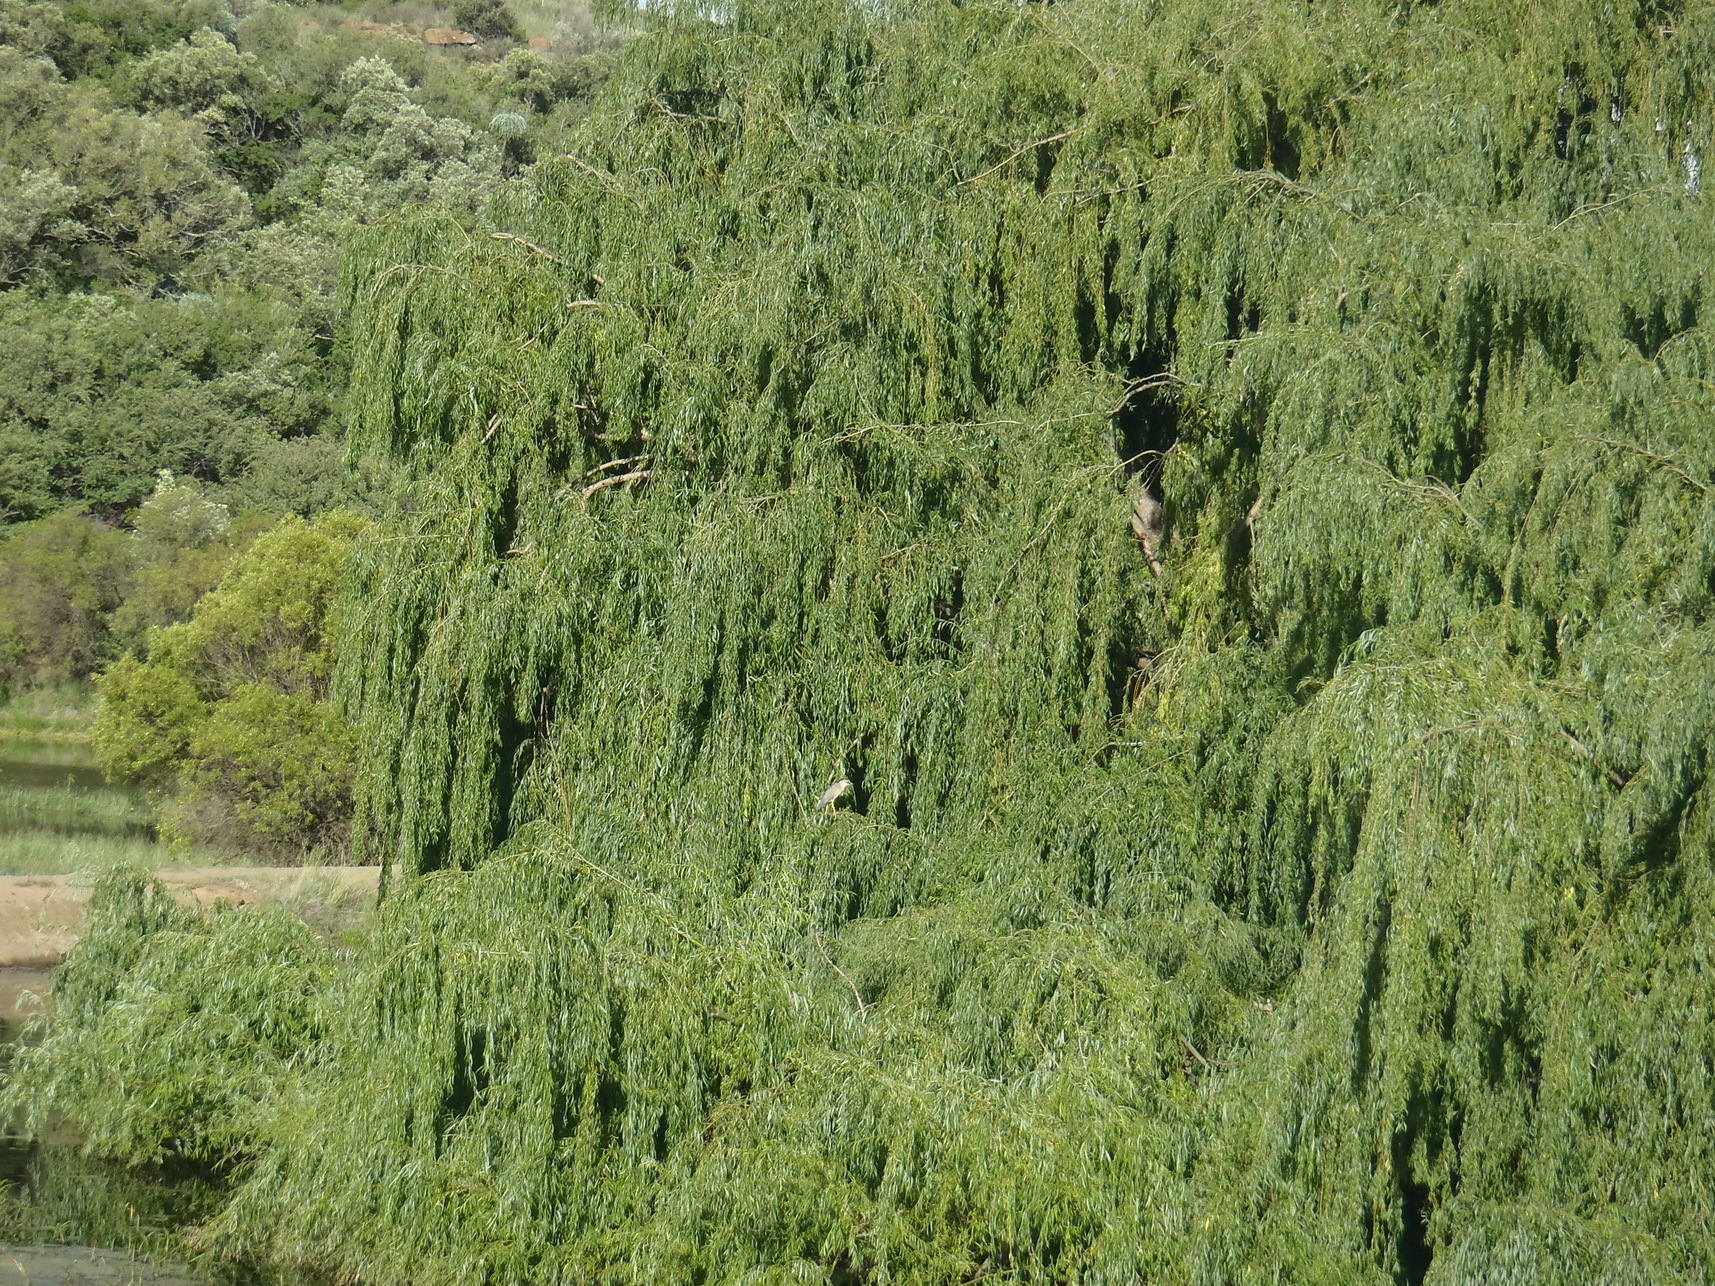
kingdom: Plantae
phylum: Tracheophyta
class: Magnoliopsida
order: Malpighiales
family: Salicaceae
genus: Salix
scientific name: Salix babylonica
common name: Weeping willow
